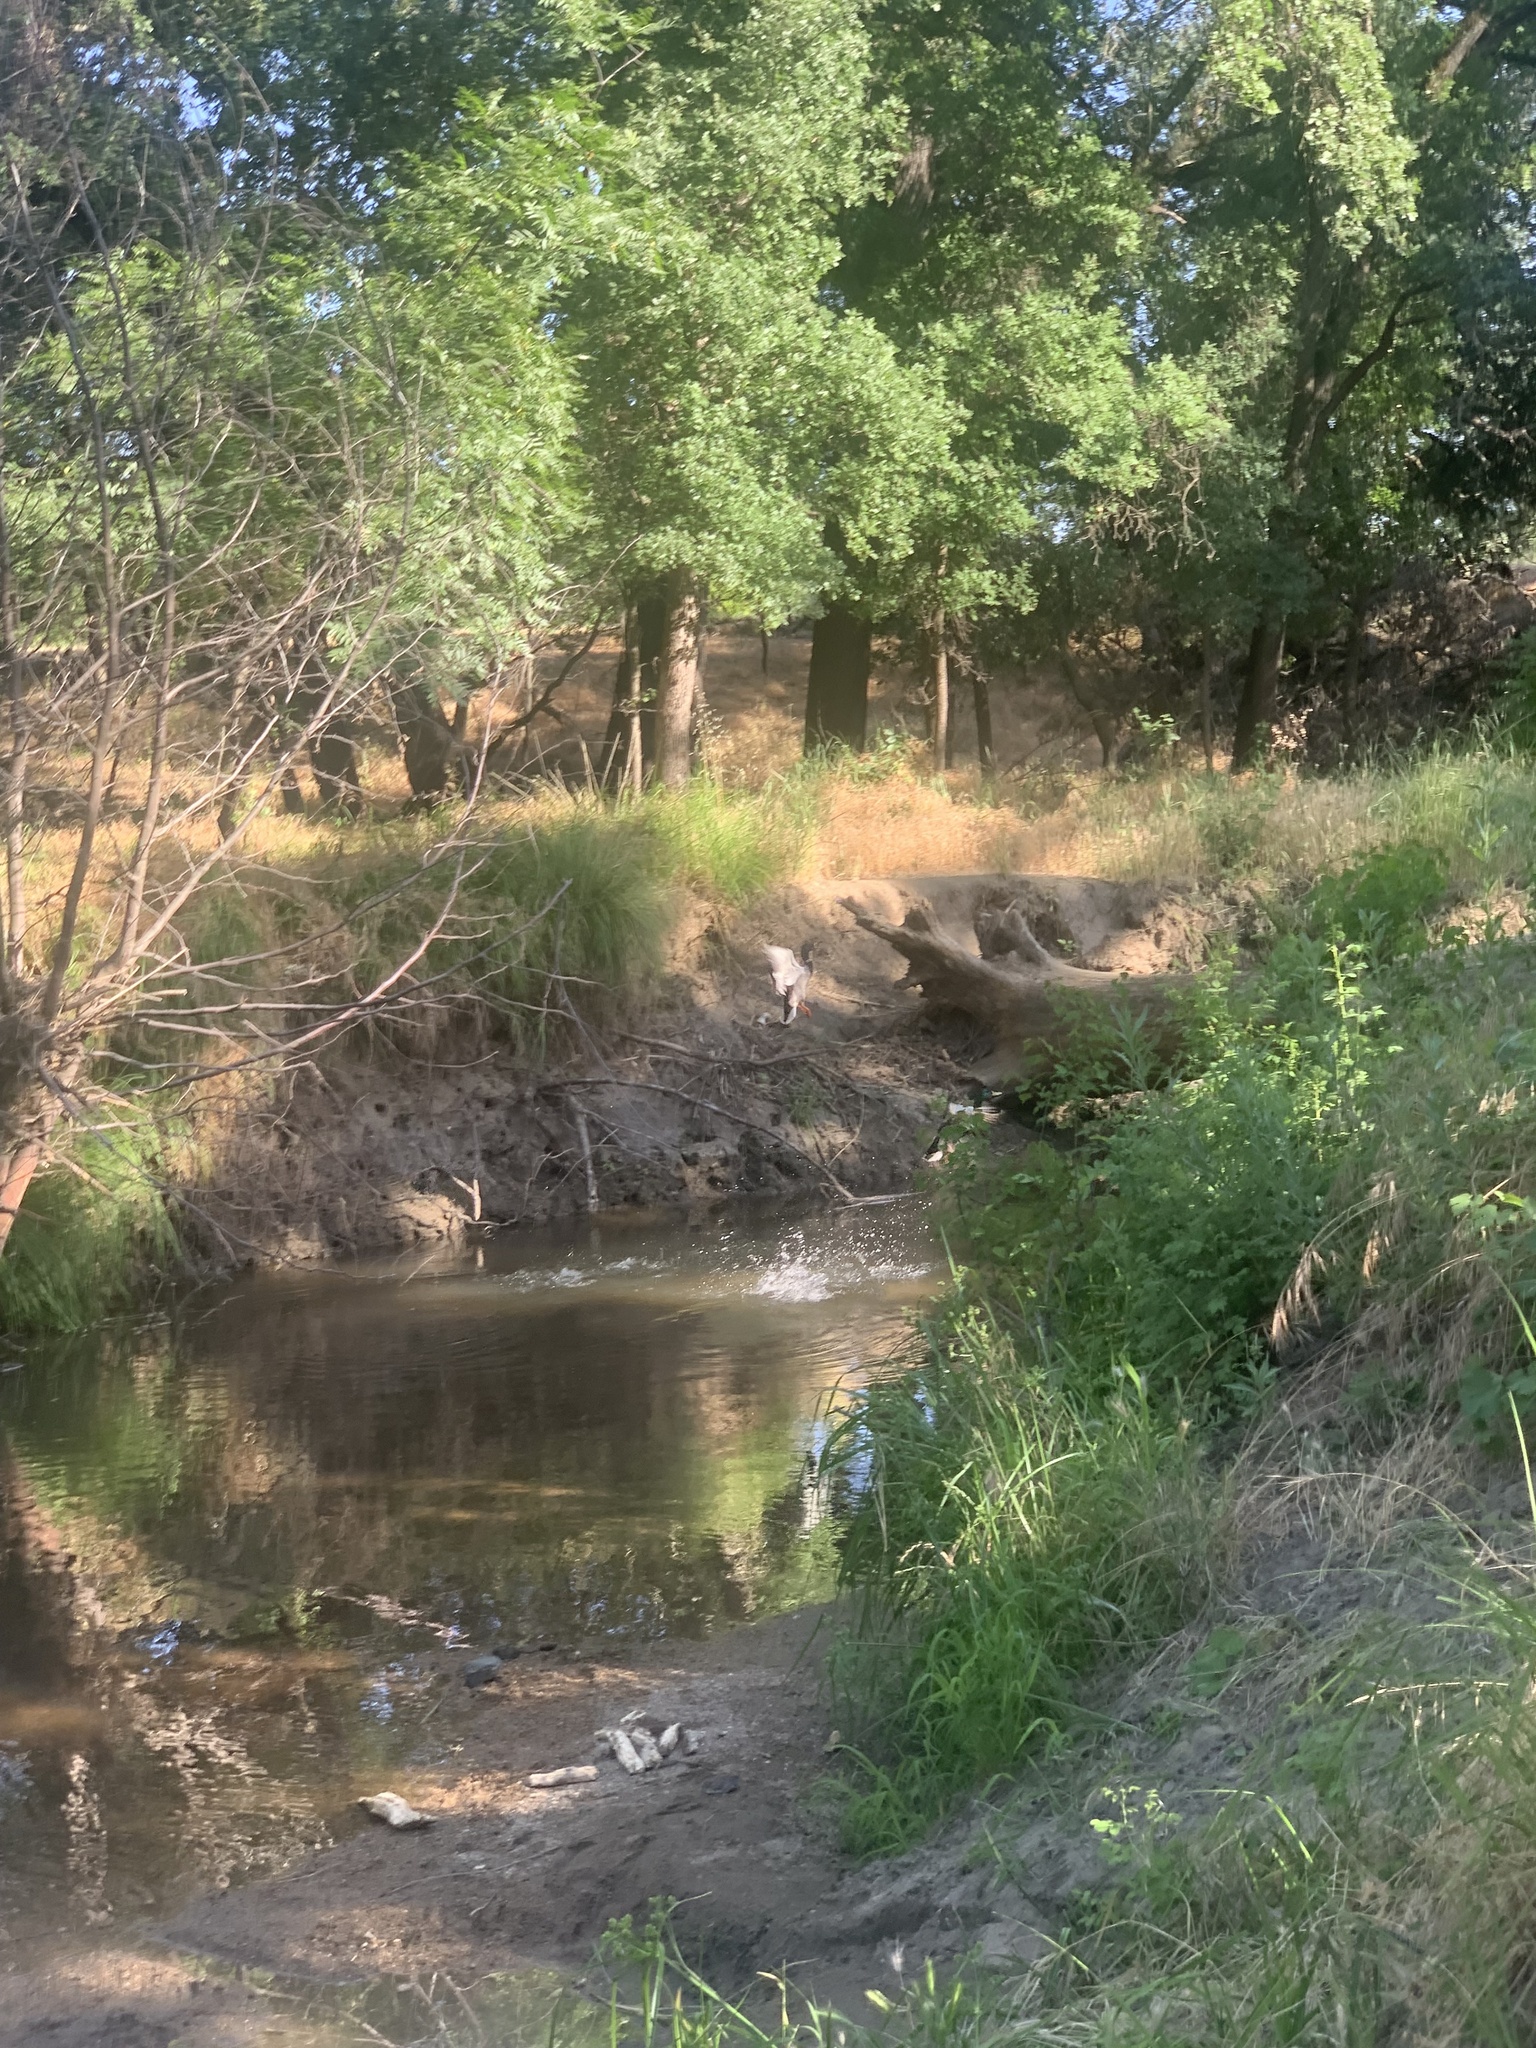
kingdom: Animalia
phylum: Chordata
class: Aves
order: Anseriformes
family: Anatidae
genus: Anas
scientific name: Anas platyrhynchos
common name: Mallard
